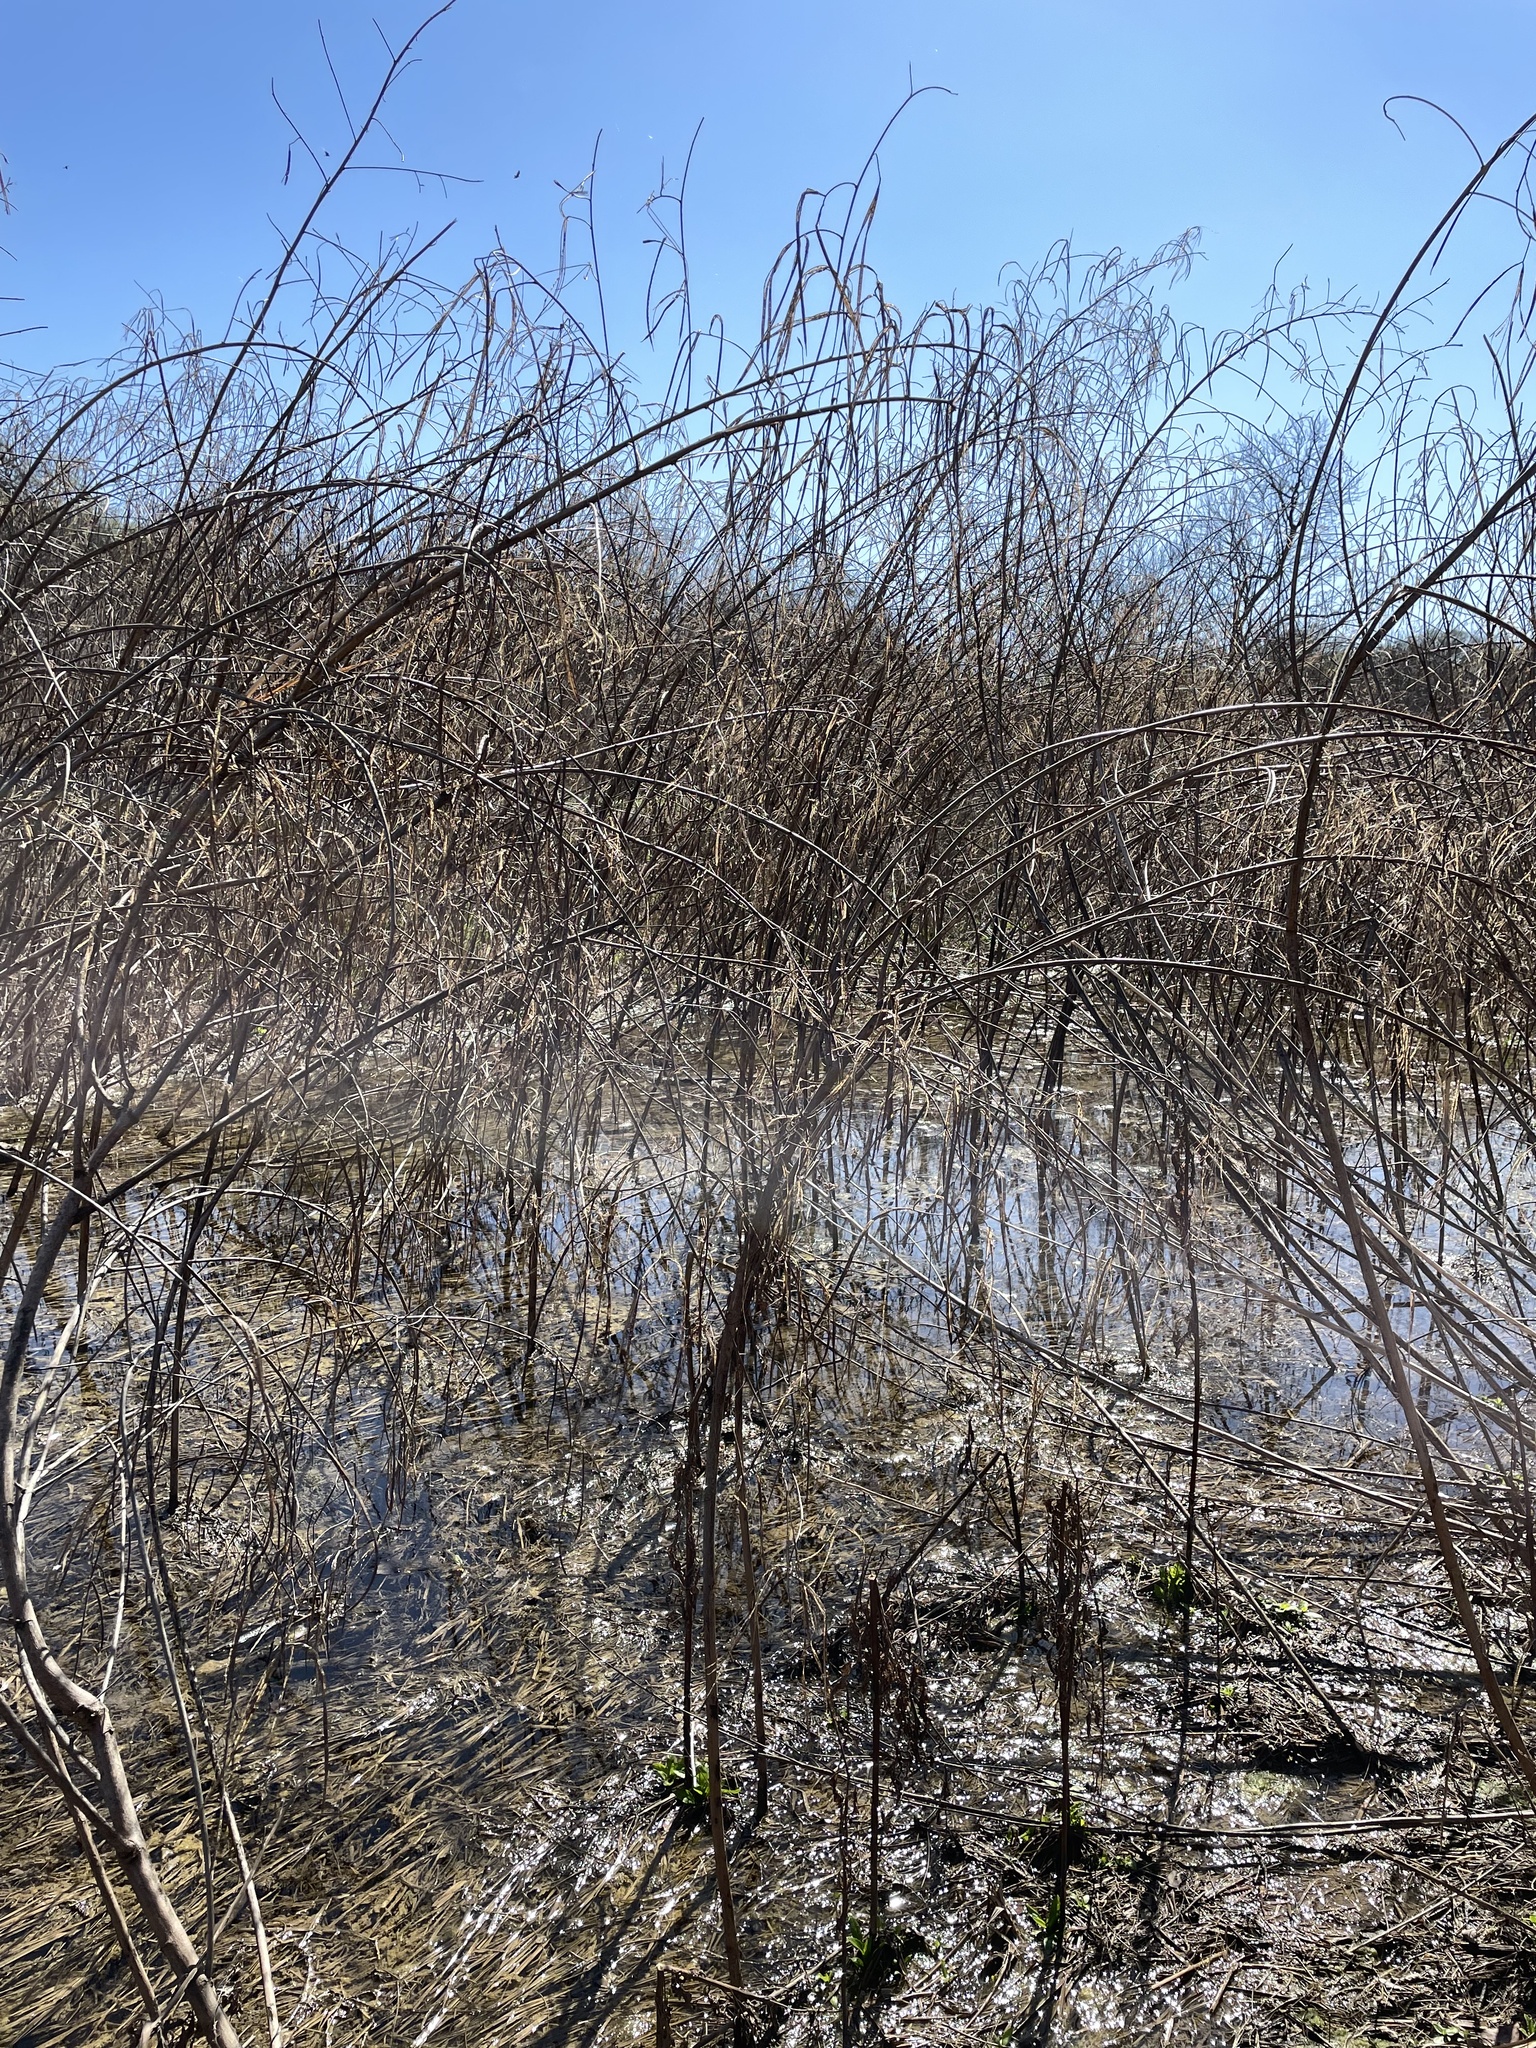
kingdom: Plantae
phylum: Tracheophyta
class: Magnoliopsida
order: Fabales
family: Fabaceae
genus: Sesbania
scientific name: Sesbania herbacea
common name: Bigpod sesbania
